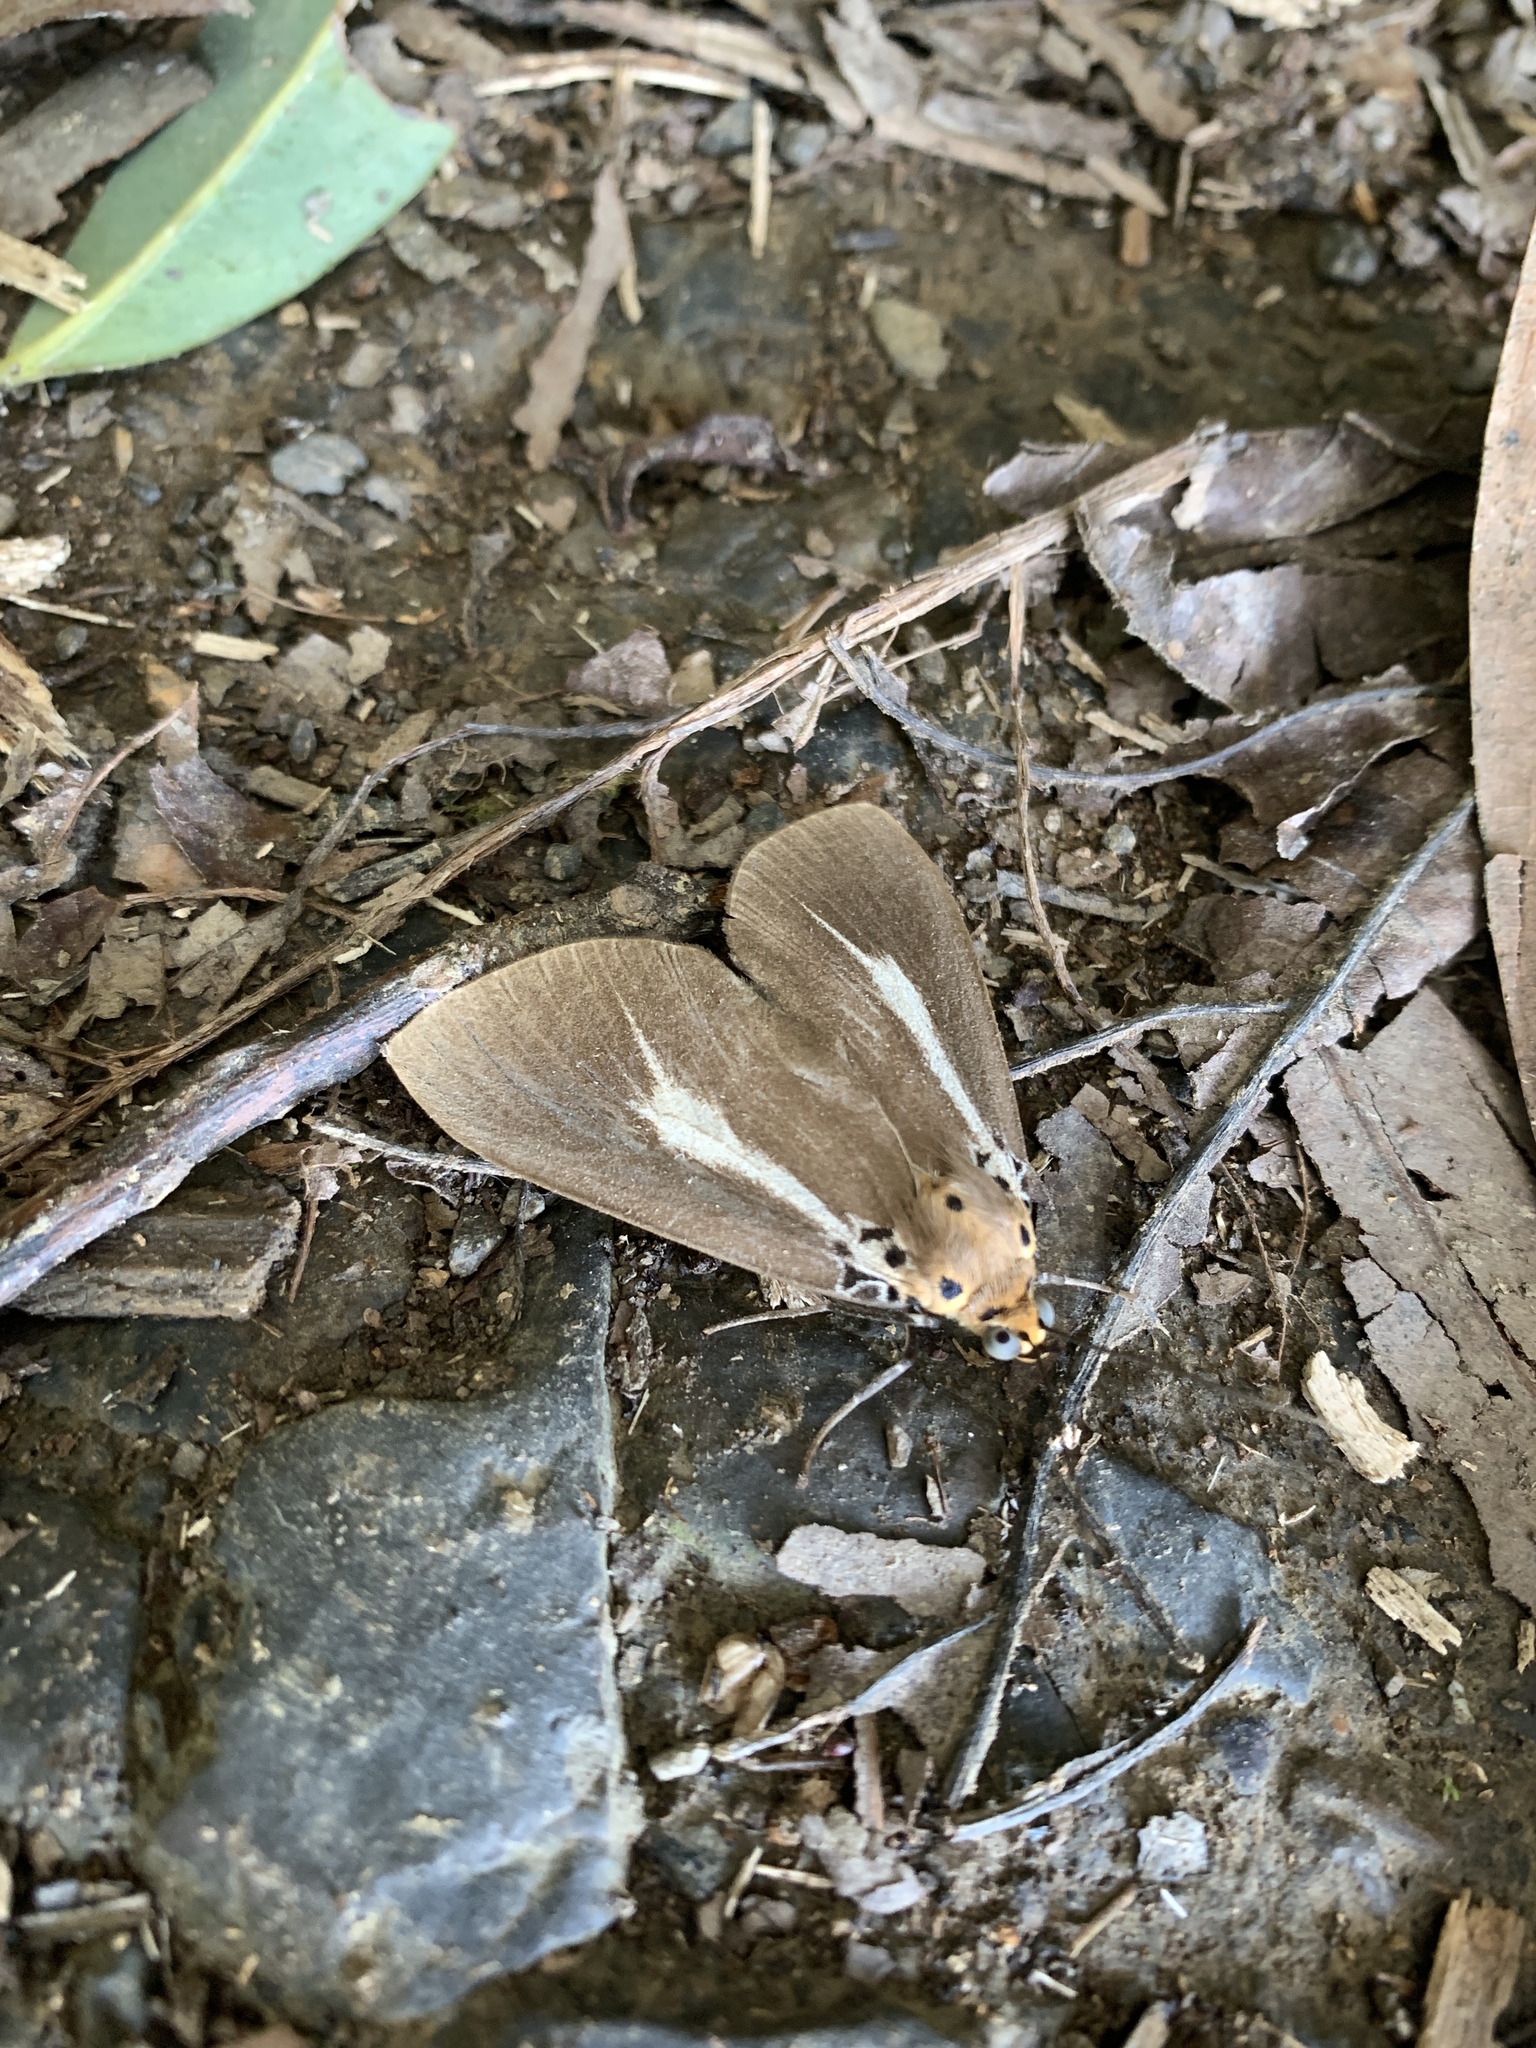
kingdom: Animalia
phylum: Arthropoda
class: Insecta
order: Lepidoptera
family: Erebidae
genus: Asota
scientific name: Asota heliconia
